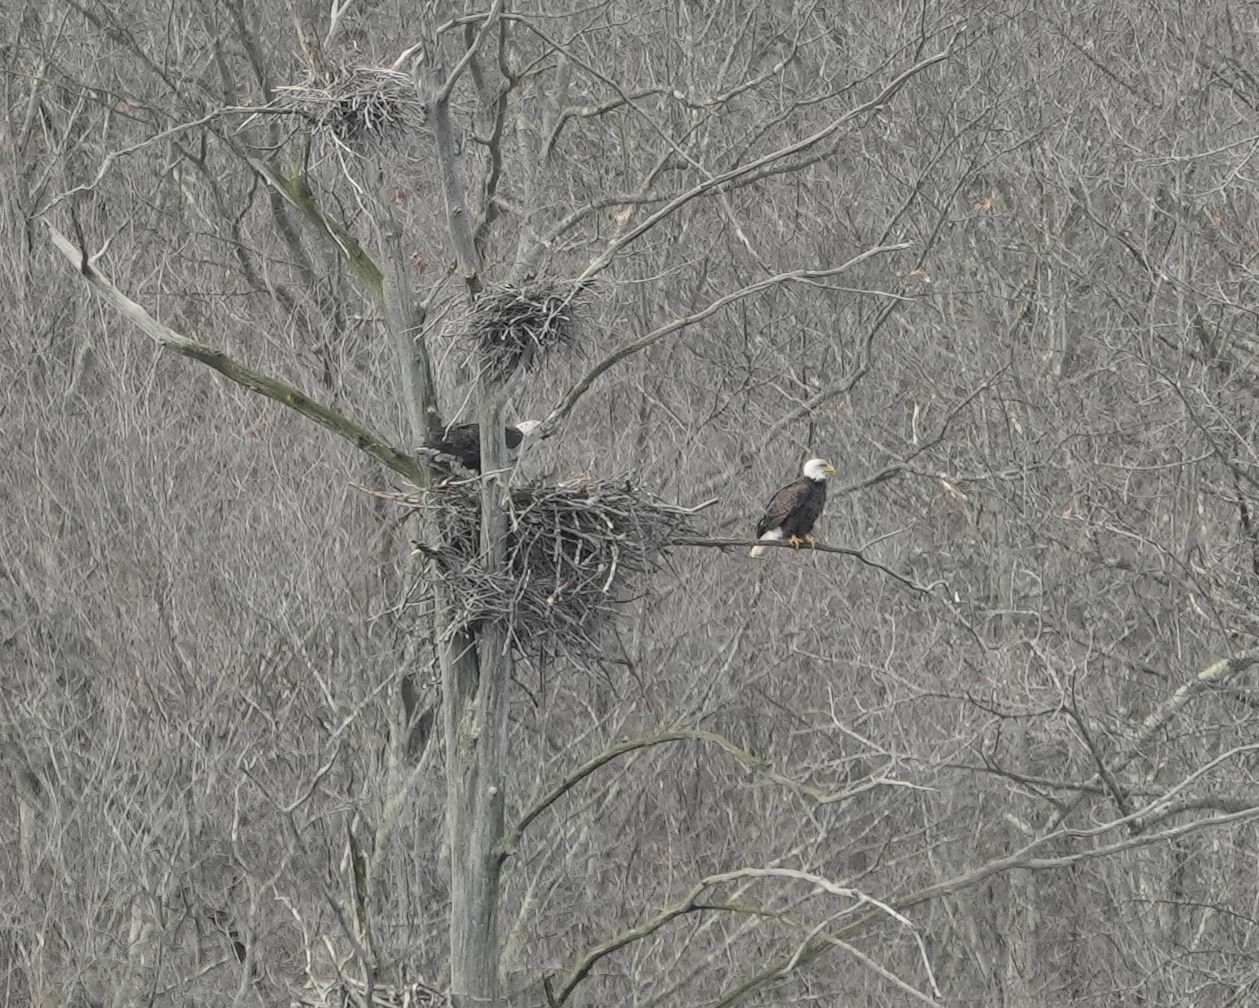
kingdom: Animalia
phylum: Chordata
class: Aves
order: Accipitriformes
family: Accipitridae
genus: Haliaeetus
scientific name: Haliaeetus leucocephalus
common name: Bald eagle
